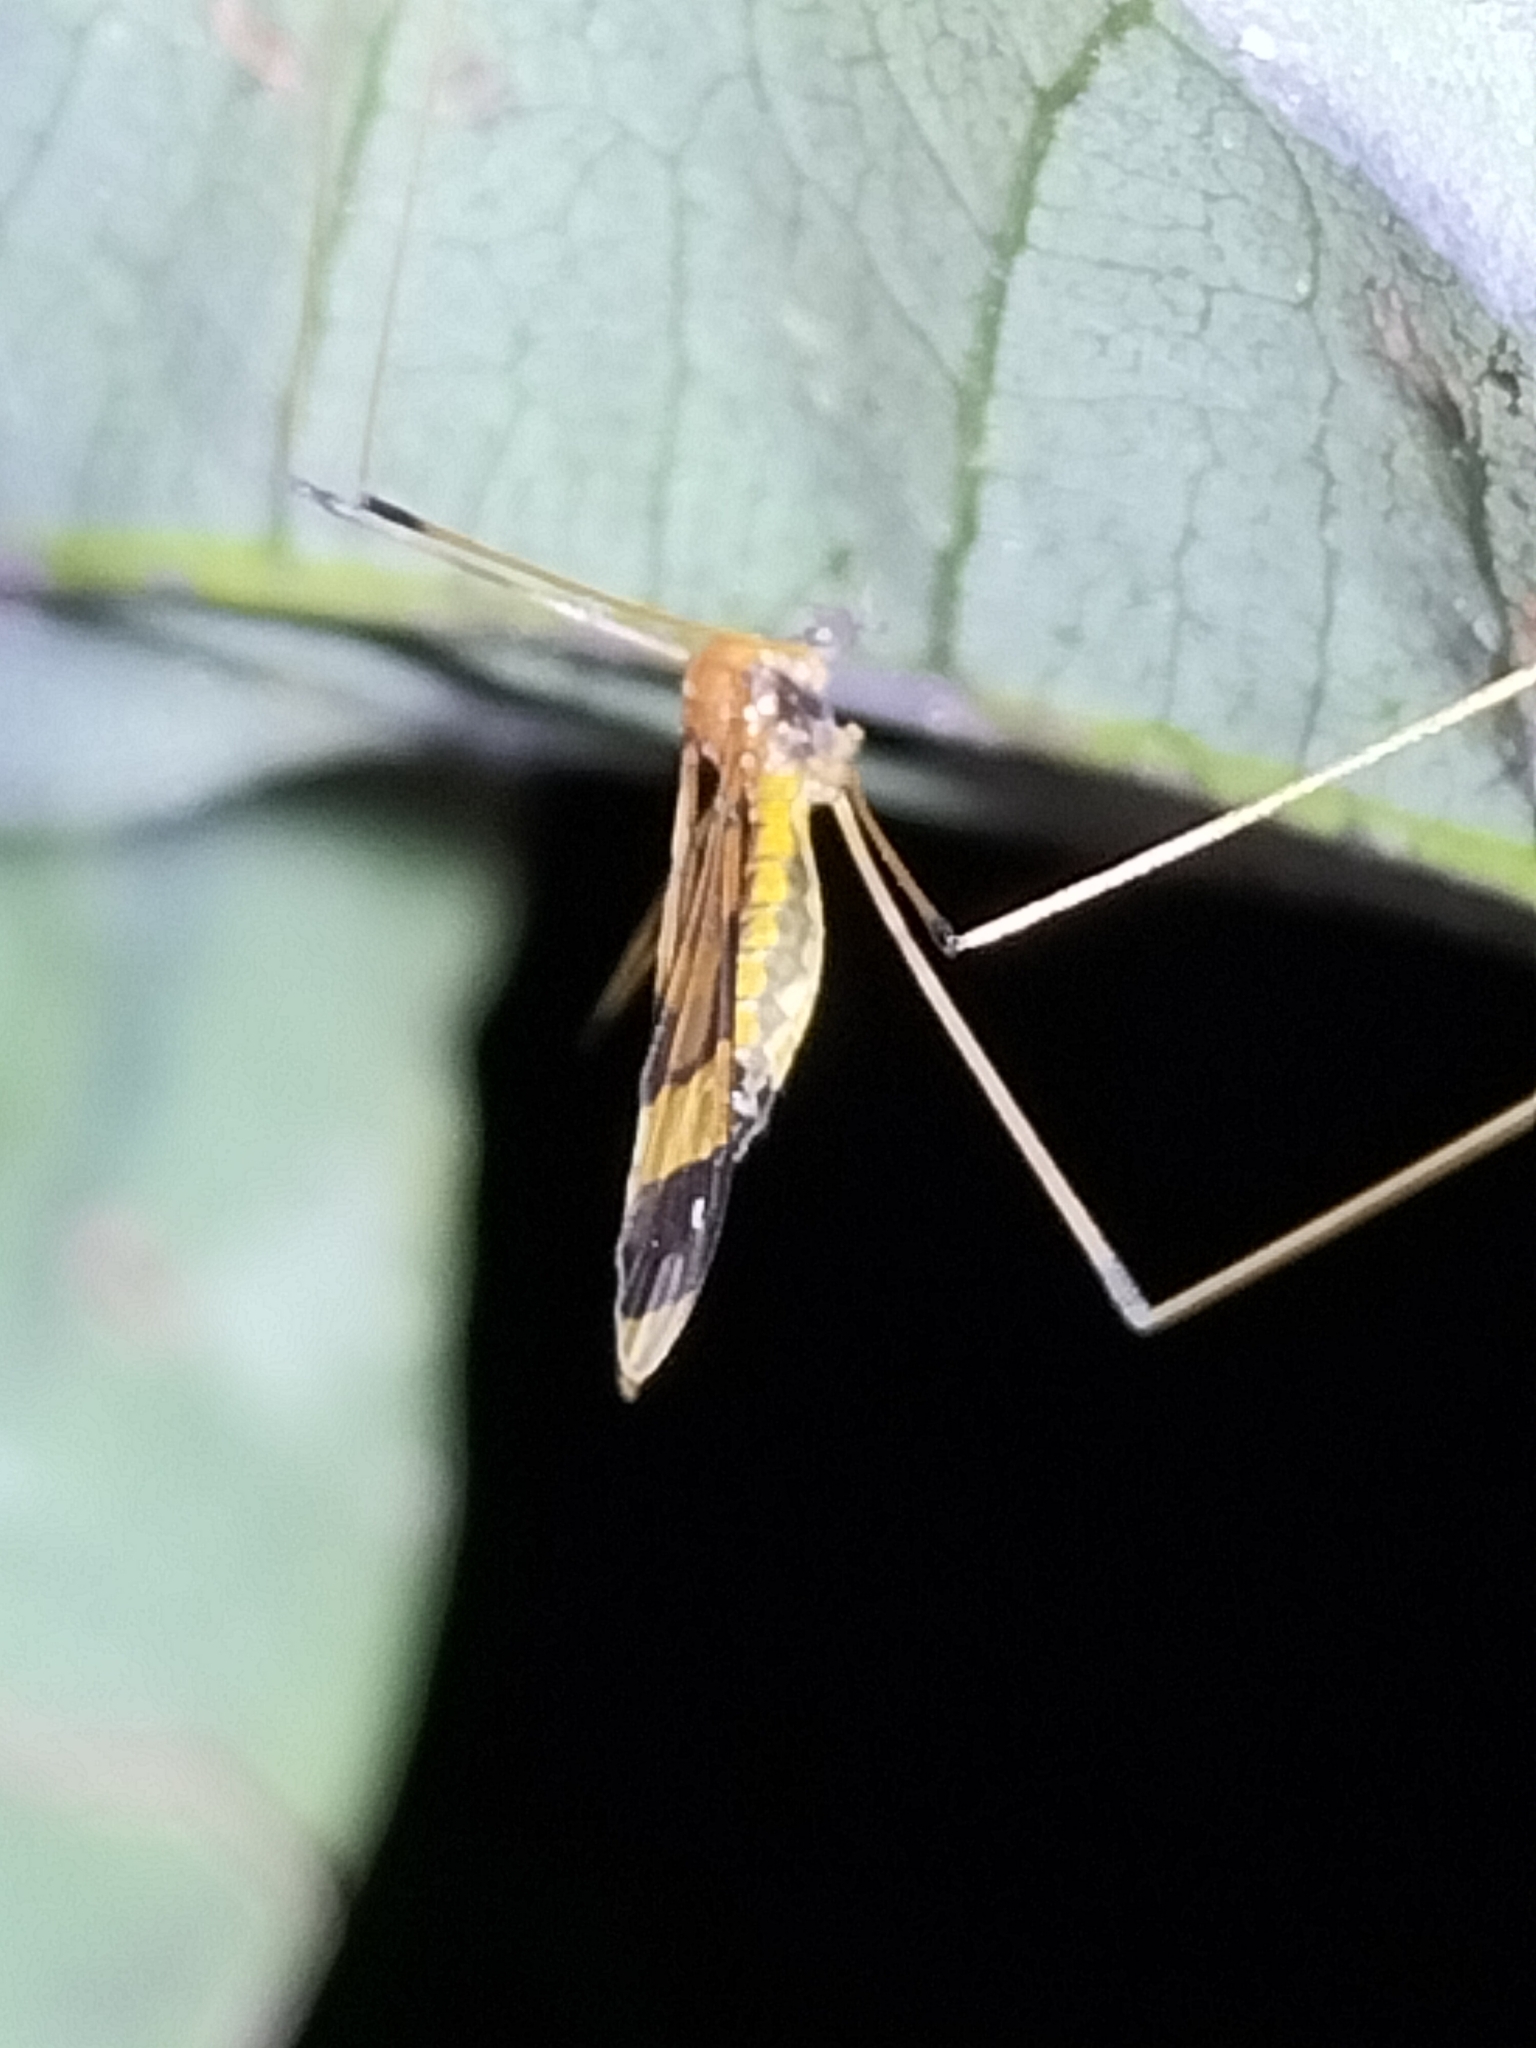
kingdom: Animalia
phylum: Arthropoda
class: Insecta
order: Diptera
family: Limoniidae
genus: Dapanoptera
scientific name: Dapanoptera richmondiana
